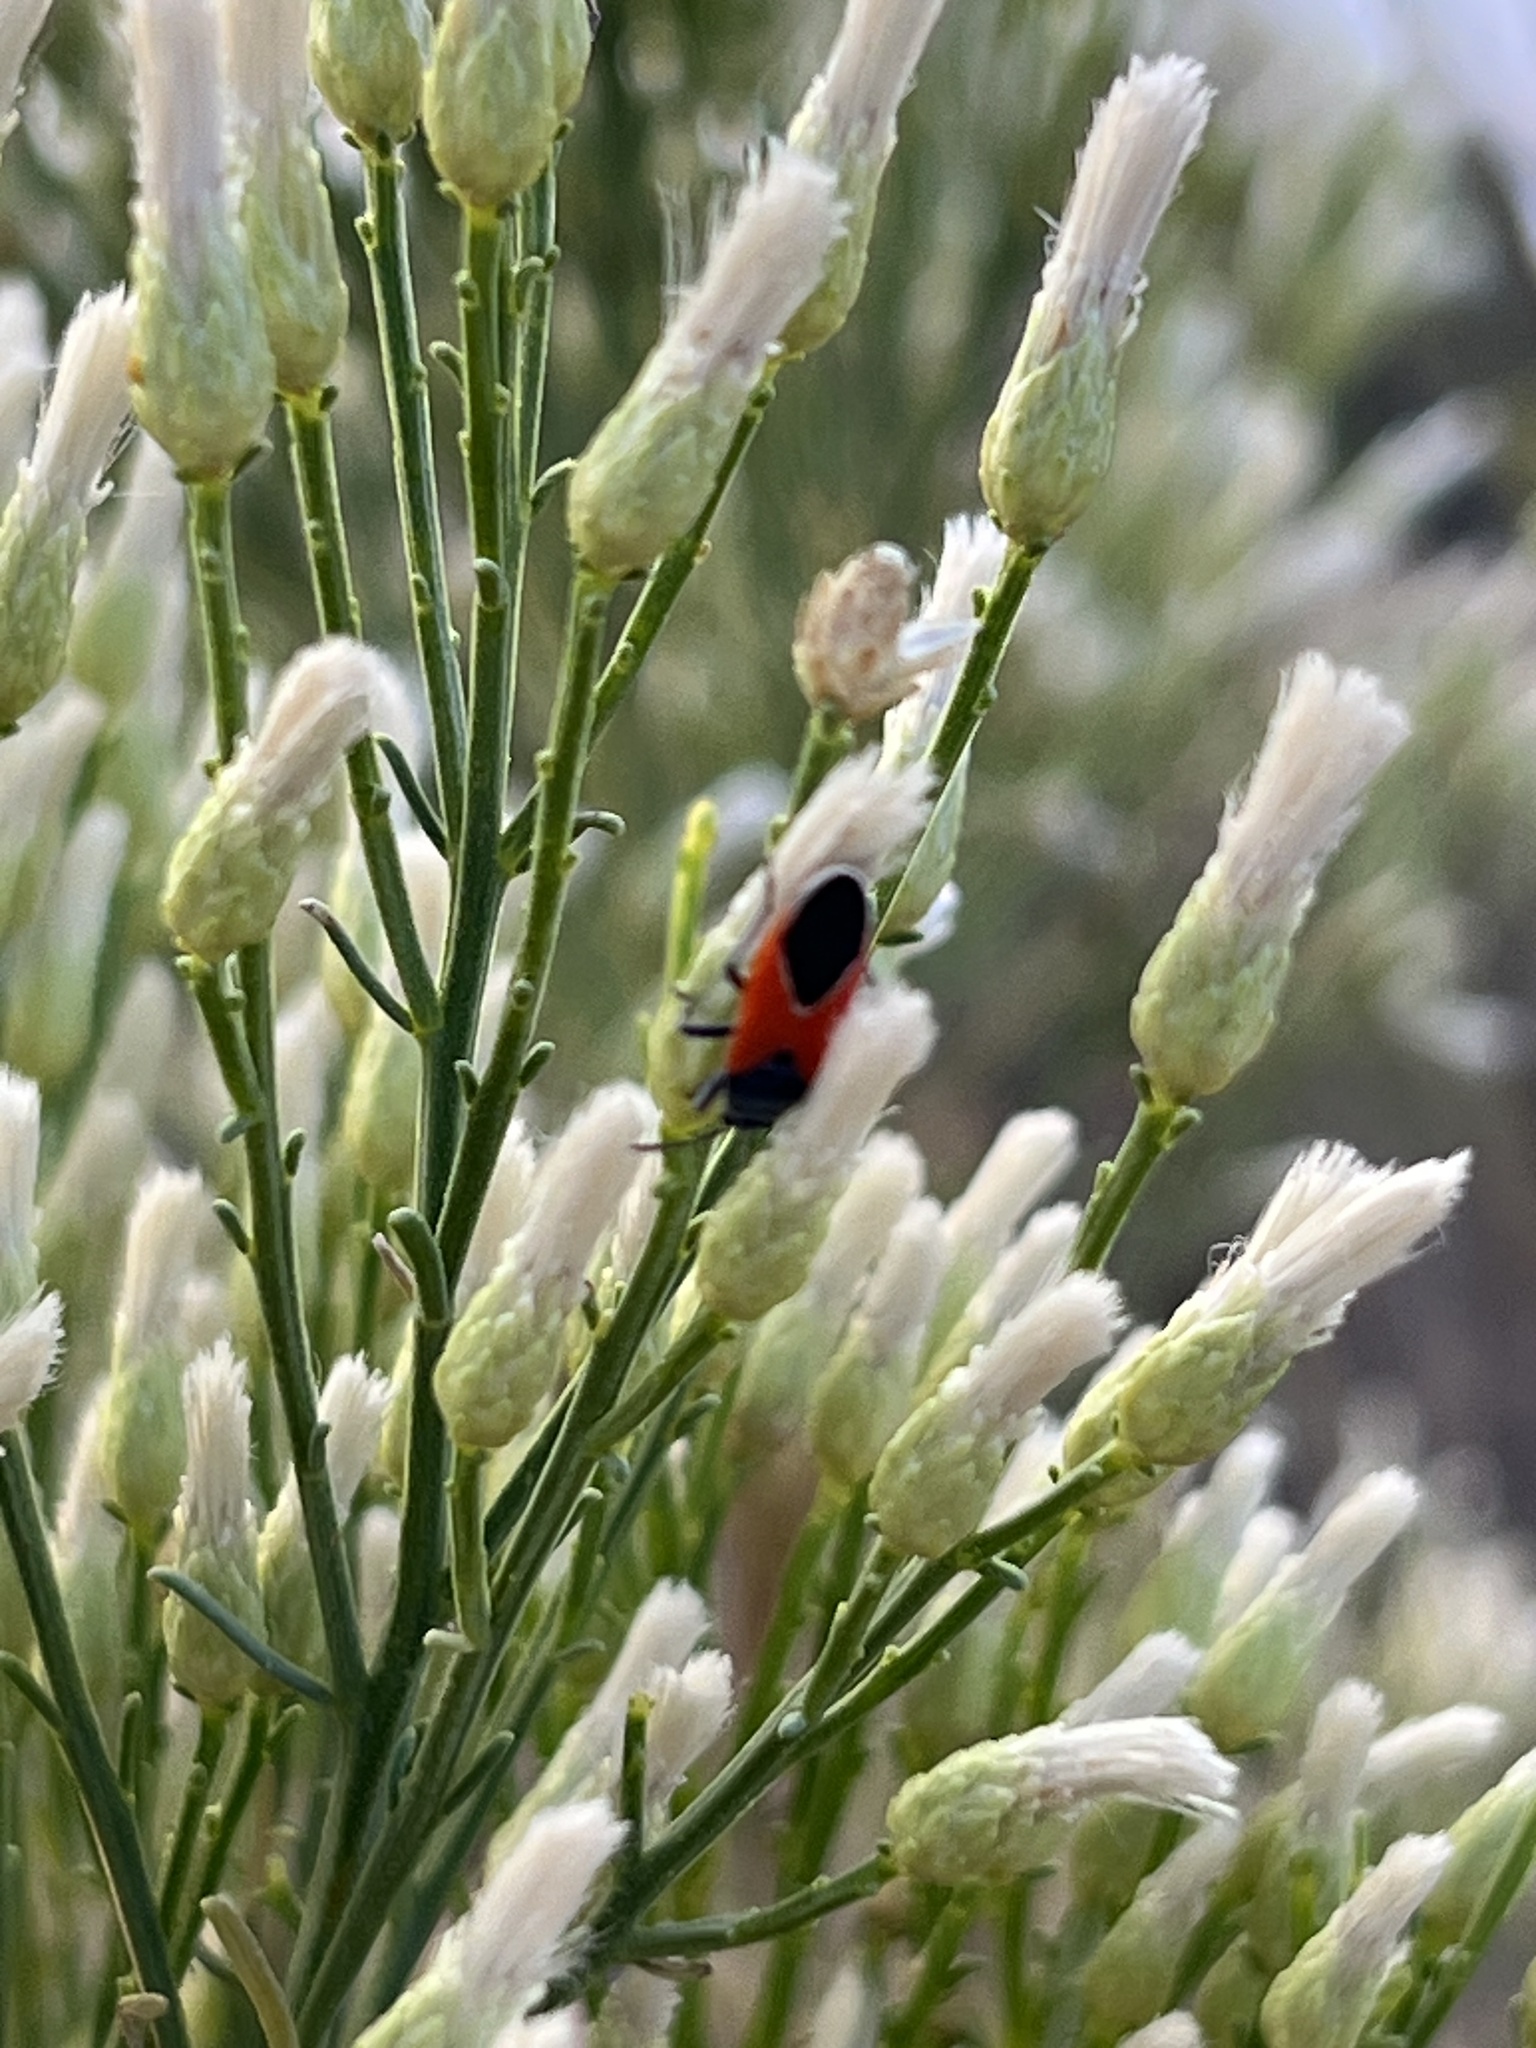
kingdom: Animalia
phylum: Arthropoda
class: Insecta
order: Hemiptera
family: Lygaeidae
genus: Melanopleurus
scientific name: Melanopleurus belfragei
